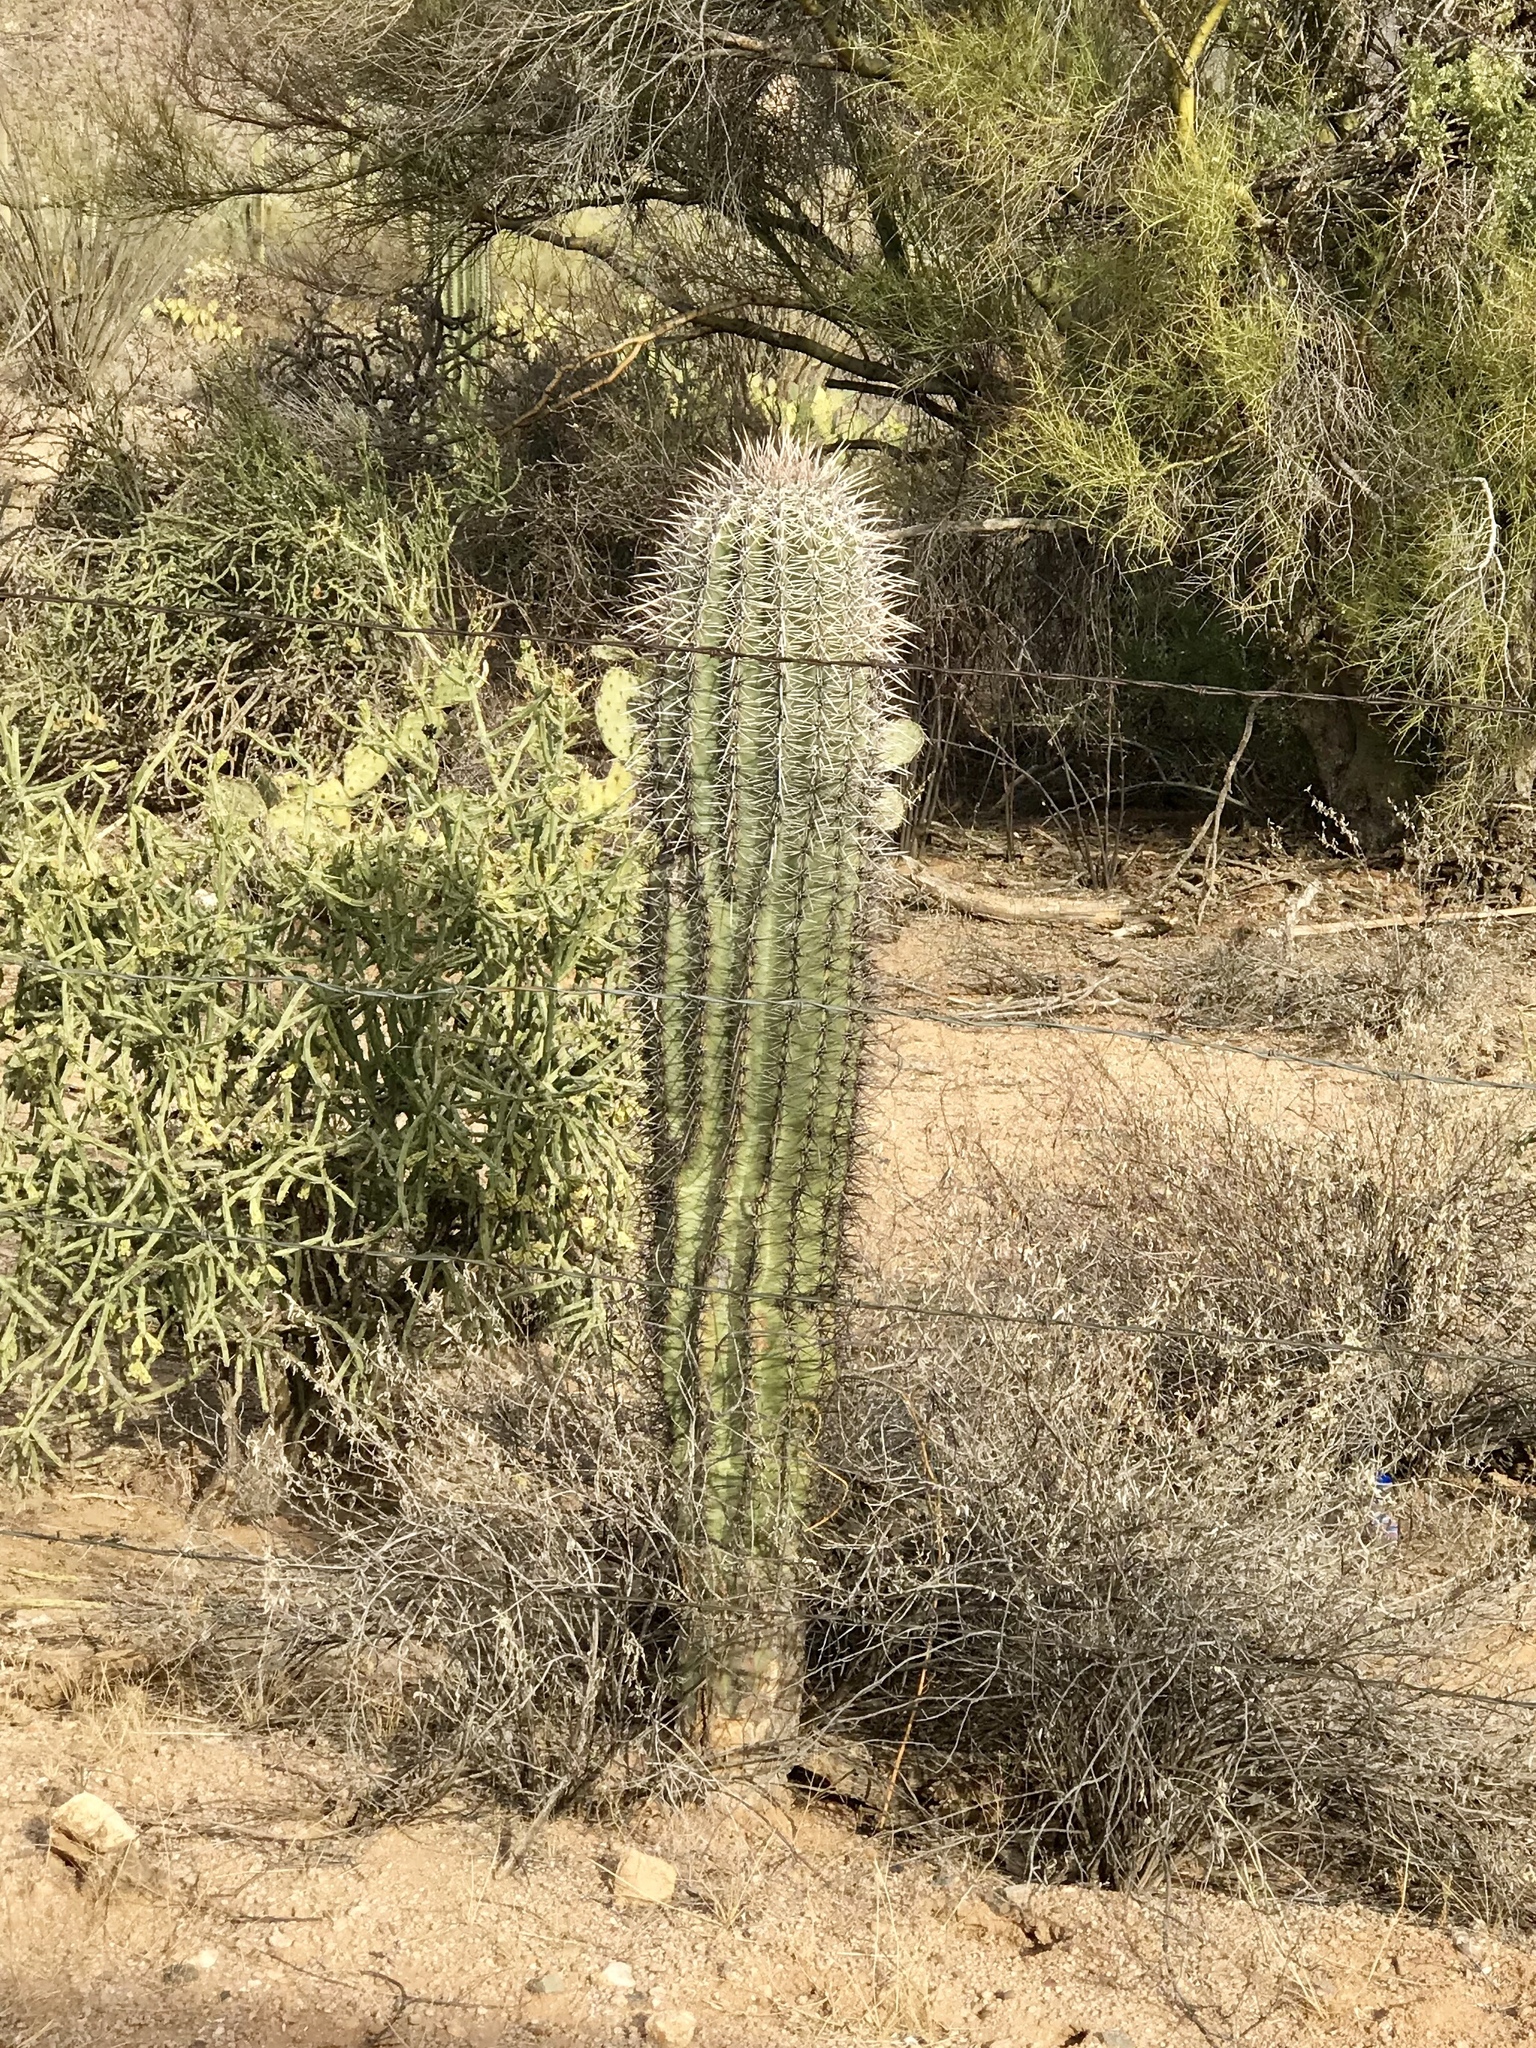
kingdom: Plantae
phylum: Tracheophyta
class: Magnoliopsida
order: Caryophyllales
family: Cactaceae
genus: Carnegiea
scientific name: Carnegiea gigantea
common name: Saguaro
